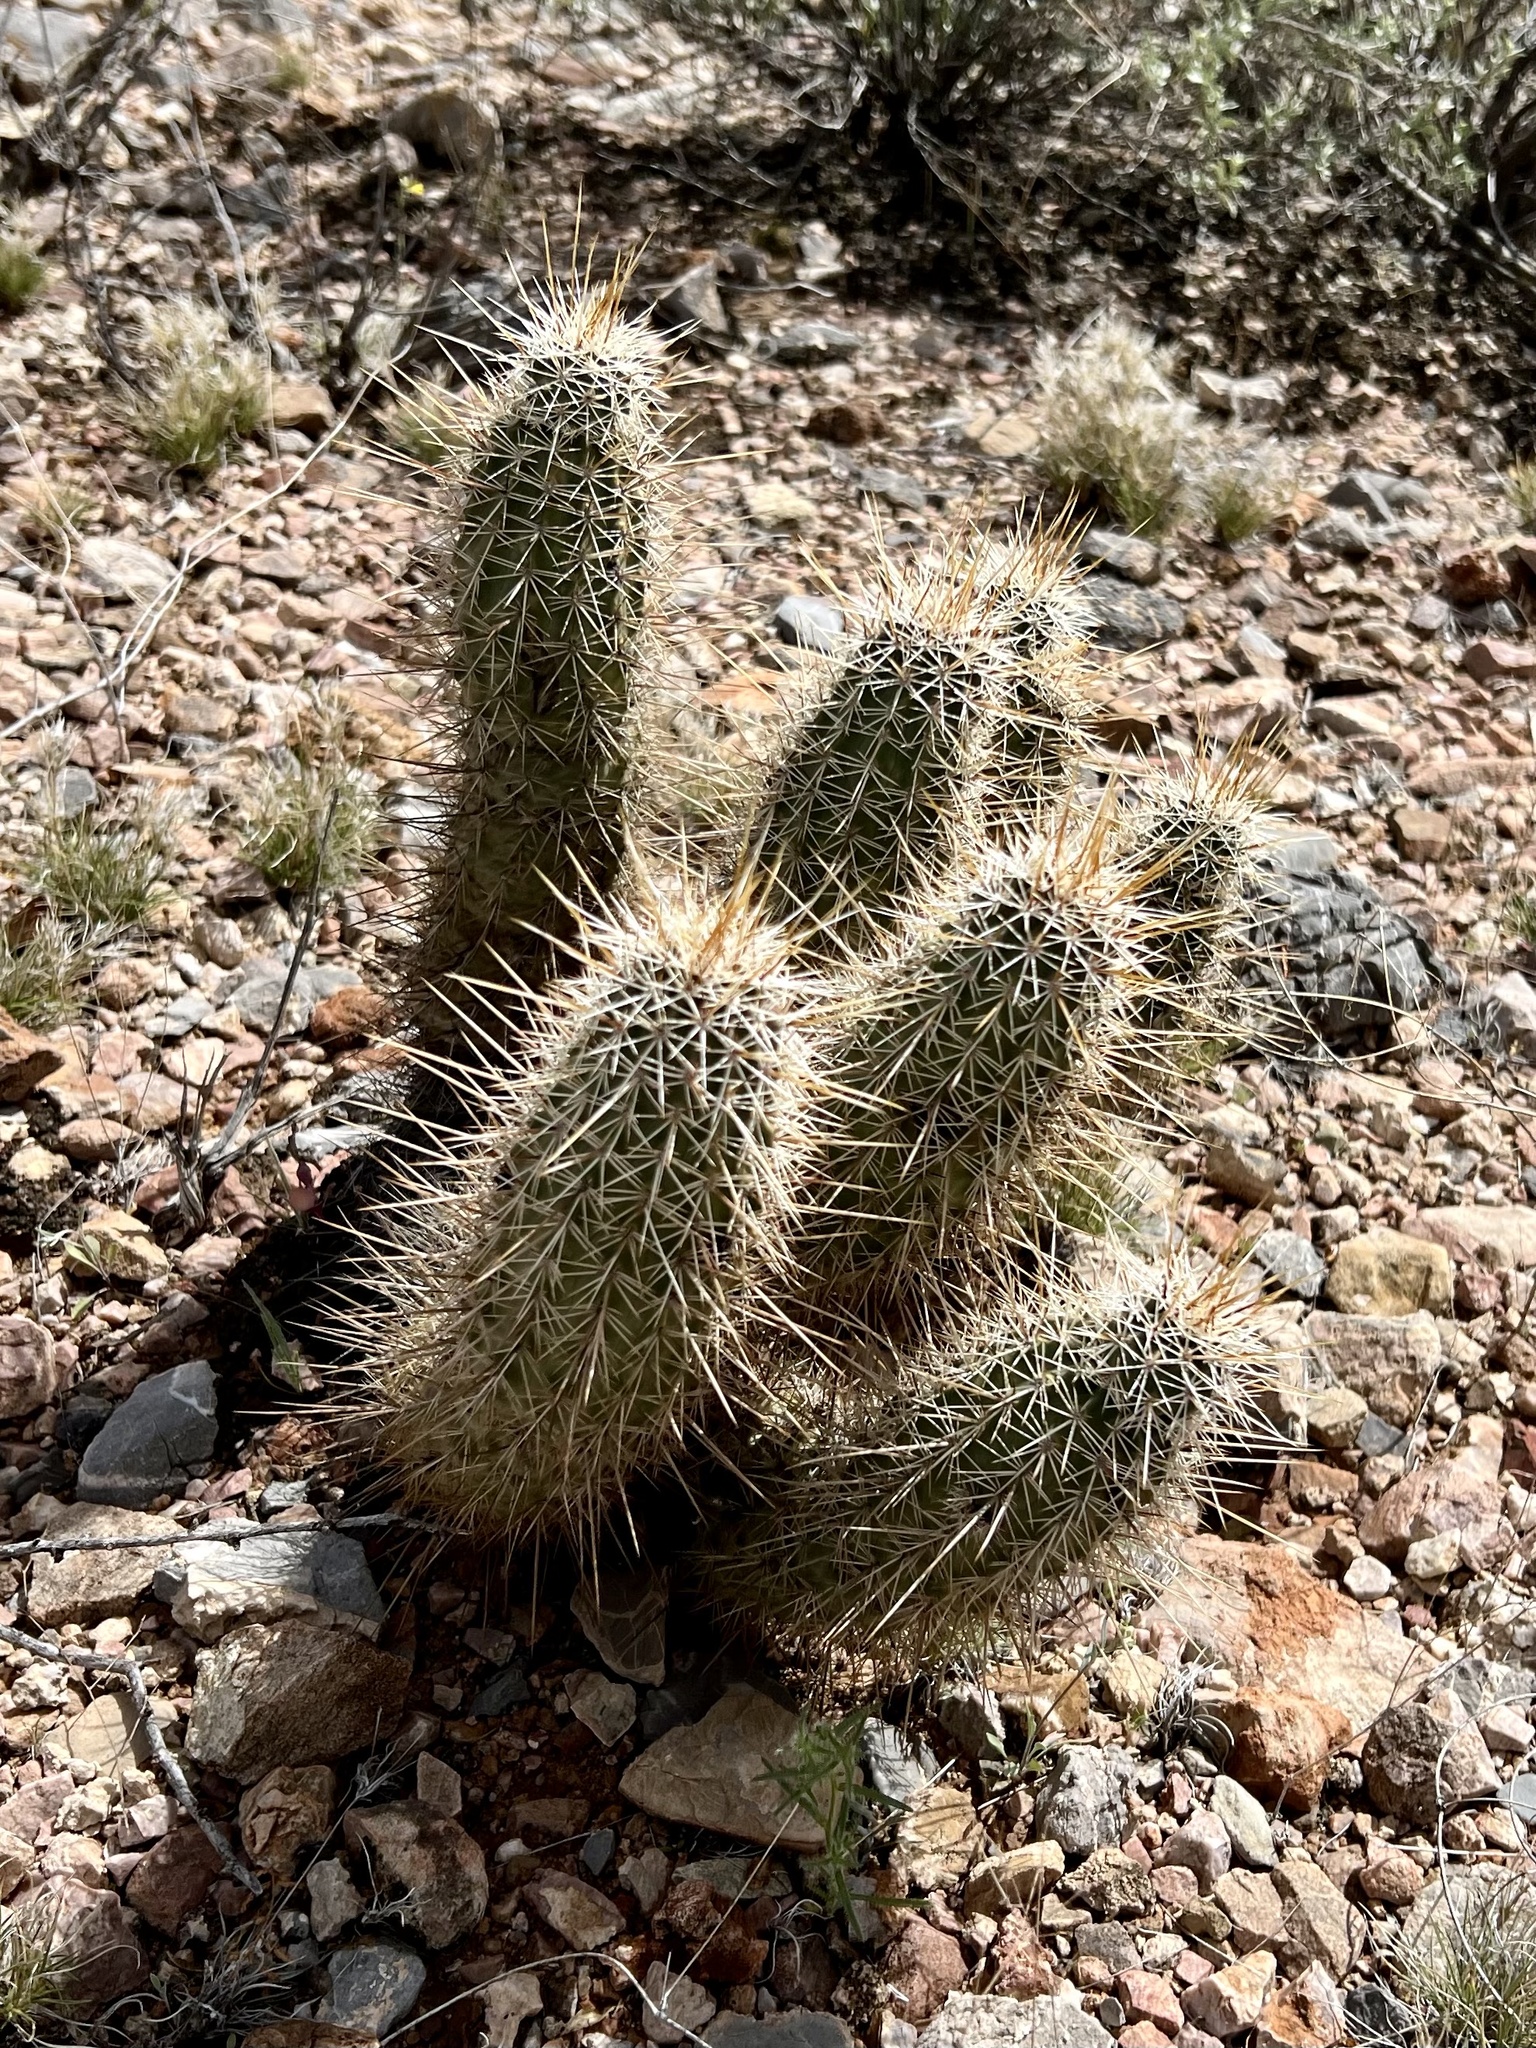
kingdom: Plantae
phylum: Tracheophyta
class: Magnoliopsida
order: Caryophyllales
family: Cactaceae
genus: Echinocereus
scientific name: Echinocereus fasciculatus
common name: Bundle hedgehog
